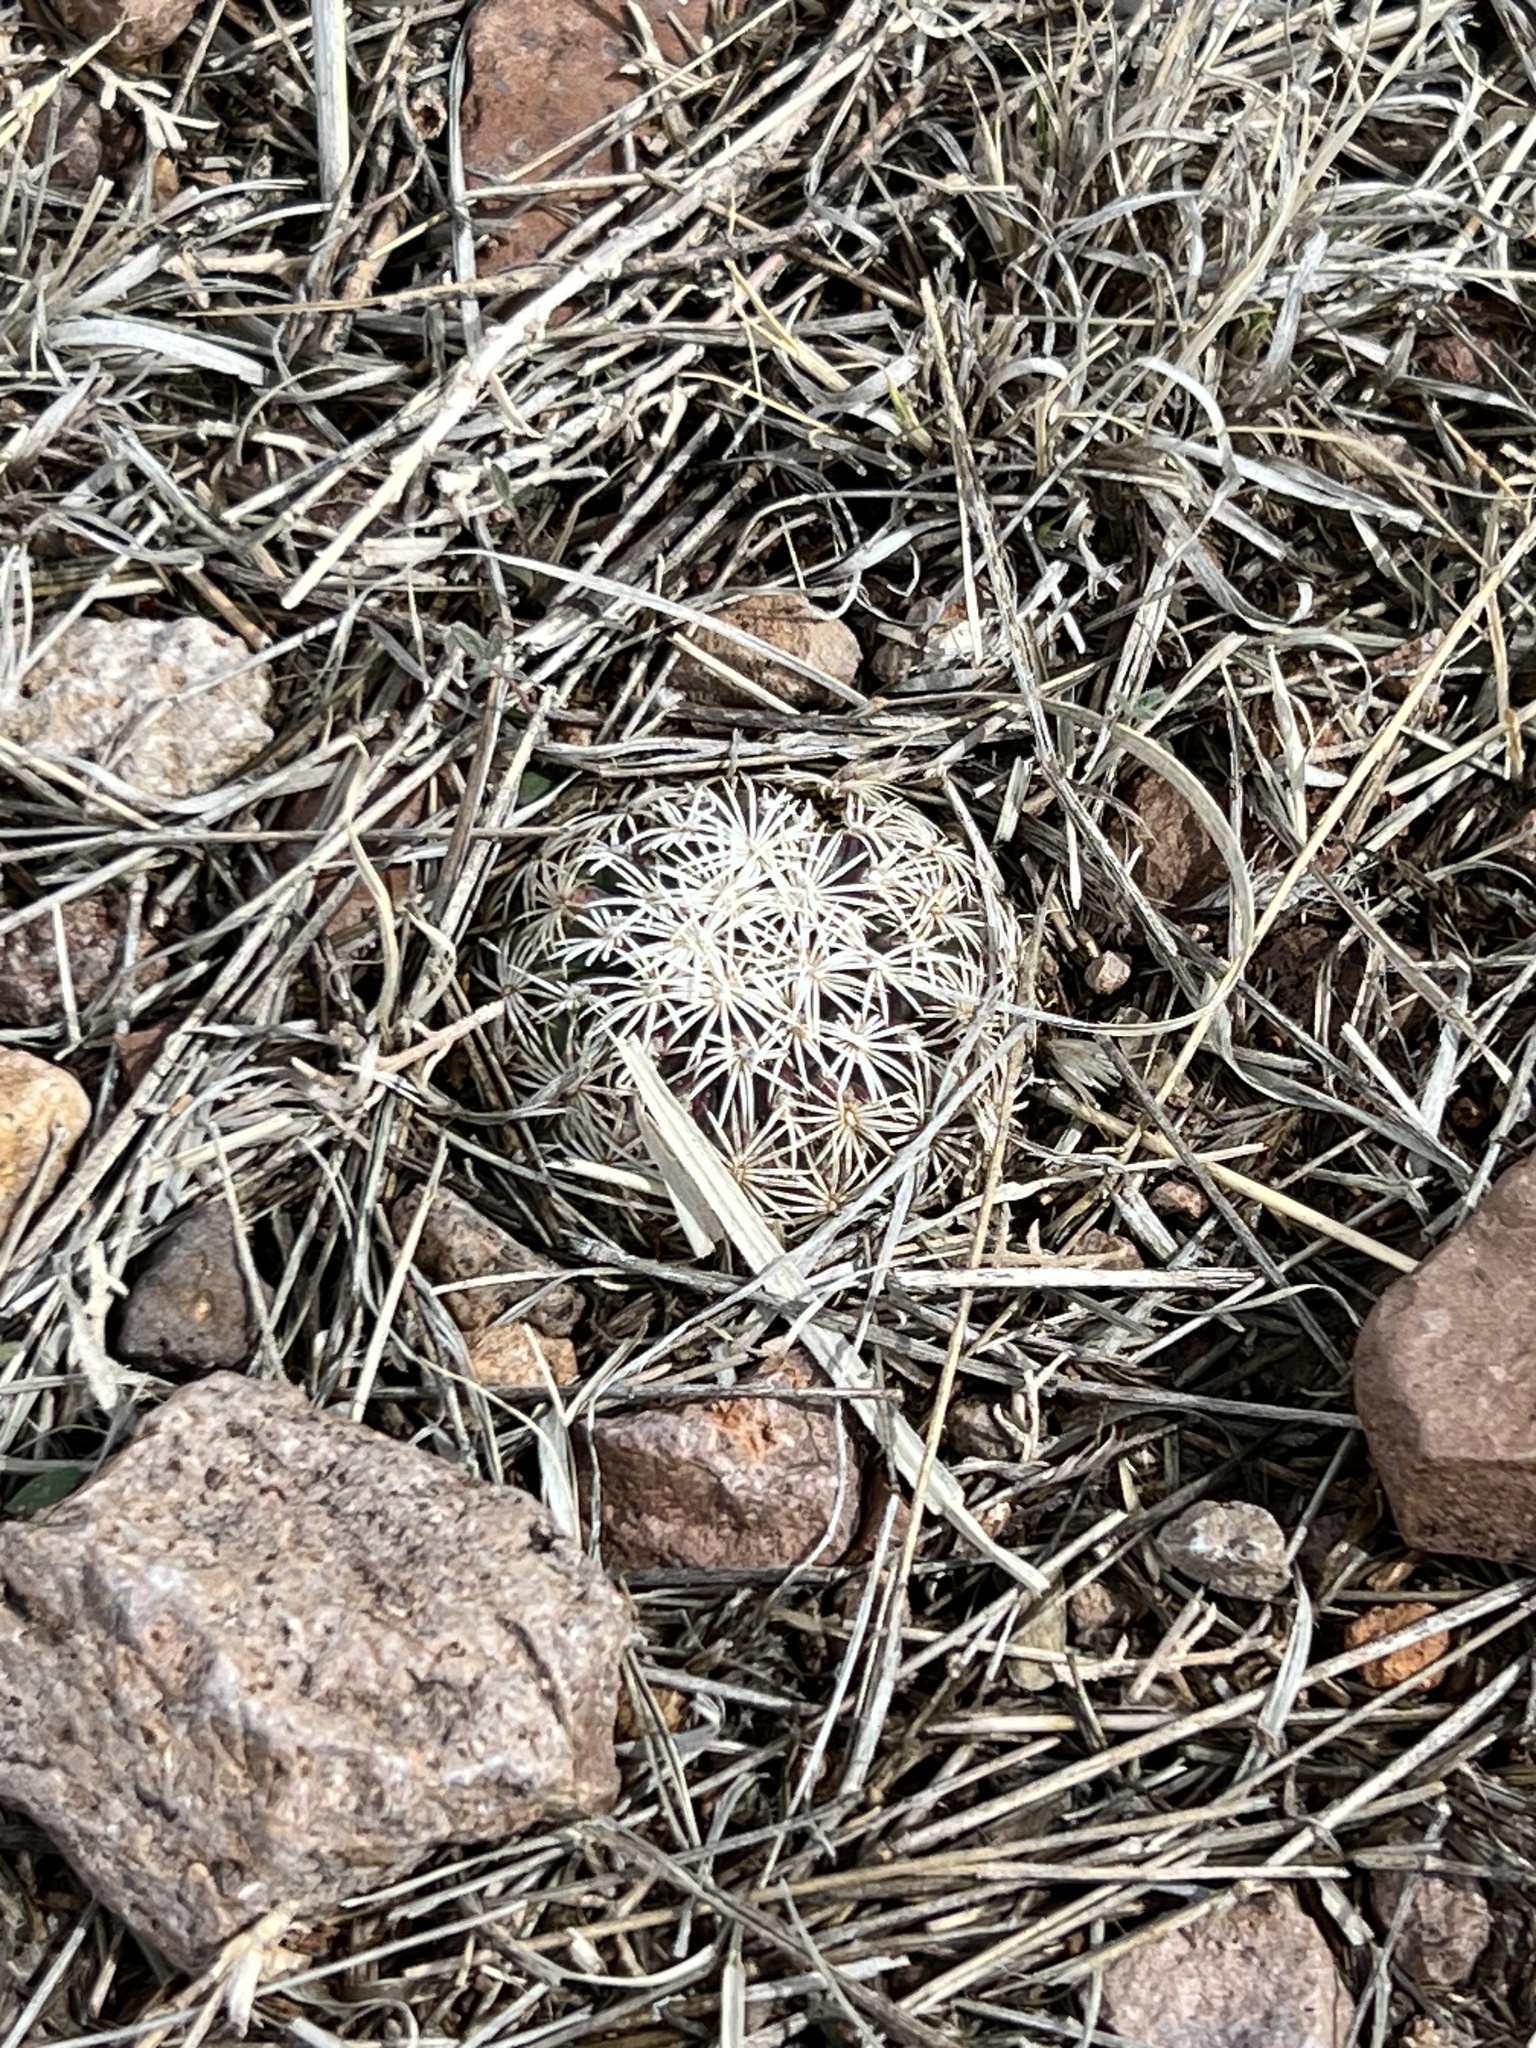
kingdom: Plantae
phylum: Tracheophyta
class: Magnoliopsida
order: Caryophyllales
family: Cactaceae
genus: Sclerocactus
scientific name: Sclerocactus johnsonii
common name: Eight-spine fishhook cactus
